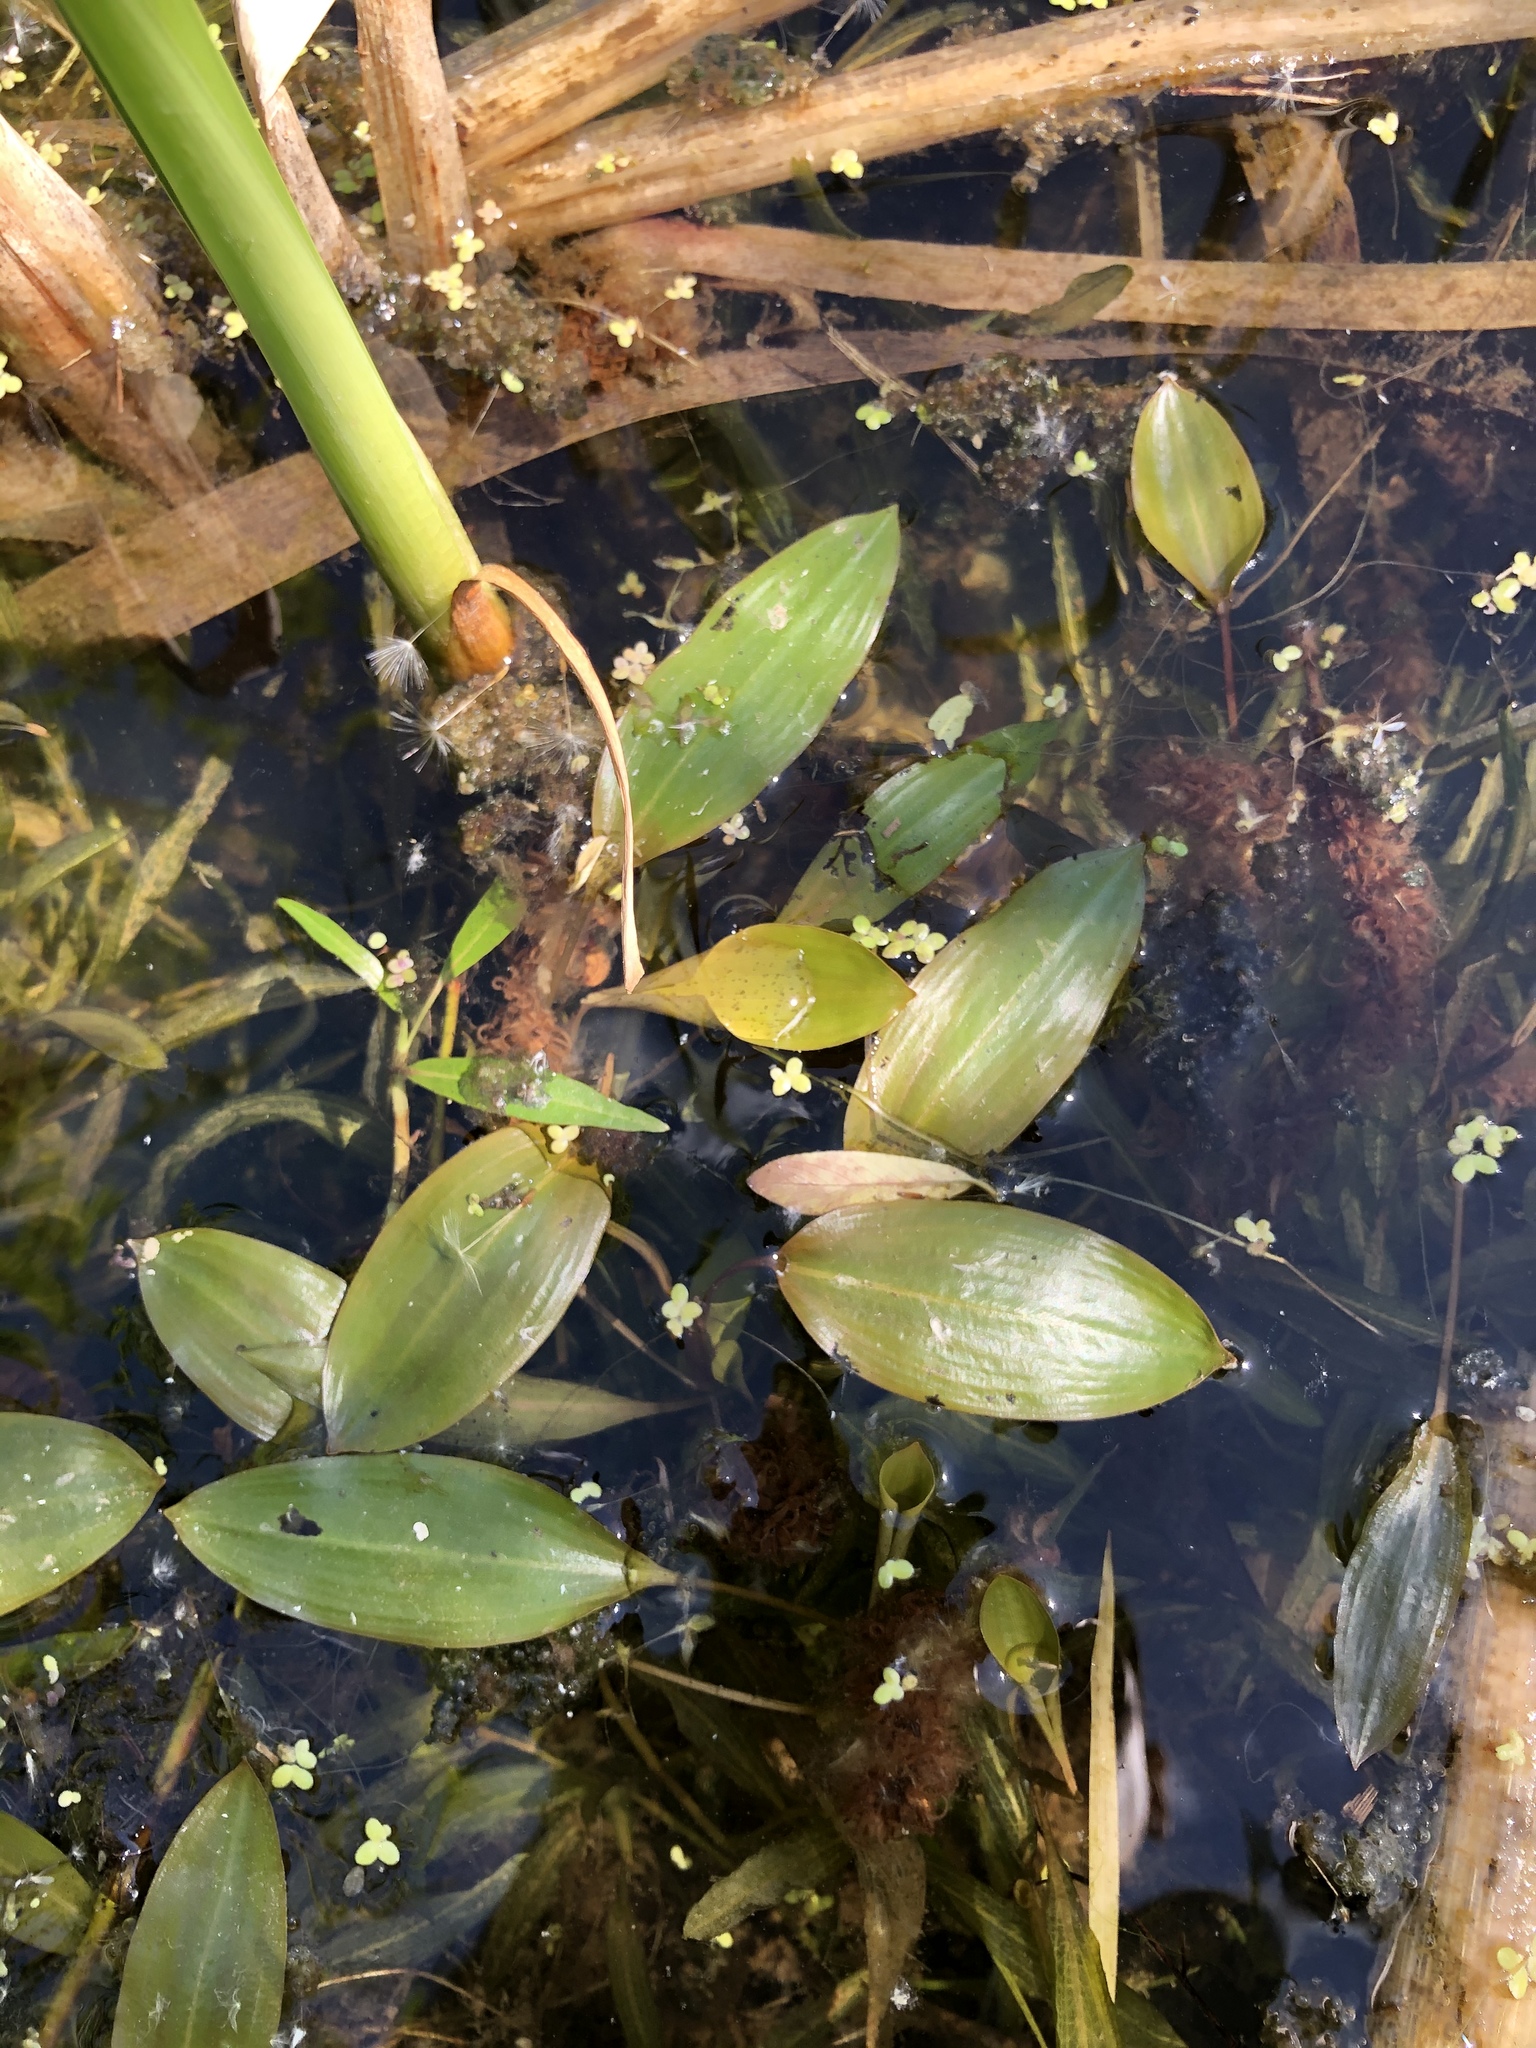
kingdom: Plantae
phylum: Tracheophyta
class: Liliopsida
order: Alismatales
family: Potamogetonaceae
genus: Potamogeton
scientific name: Potamogeton gramineus
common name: Various-leaved pondweed
